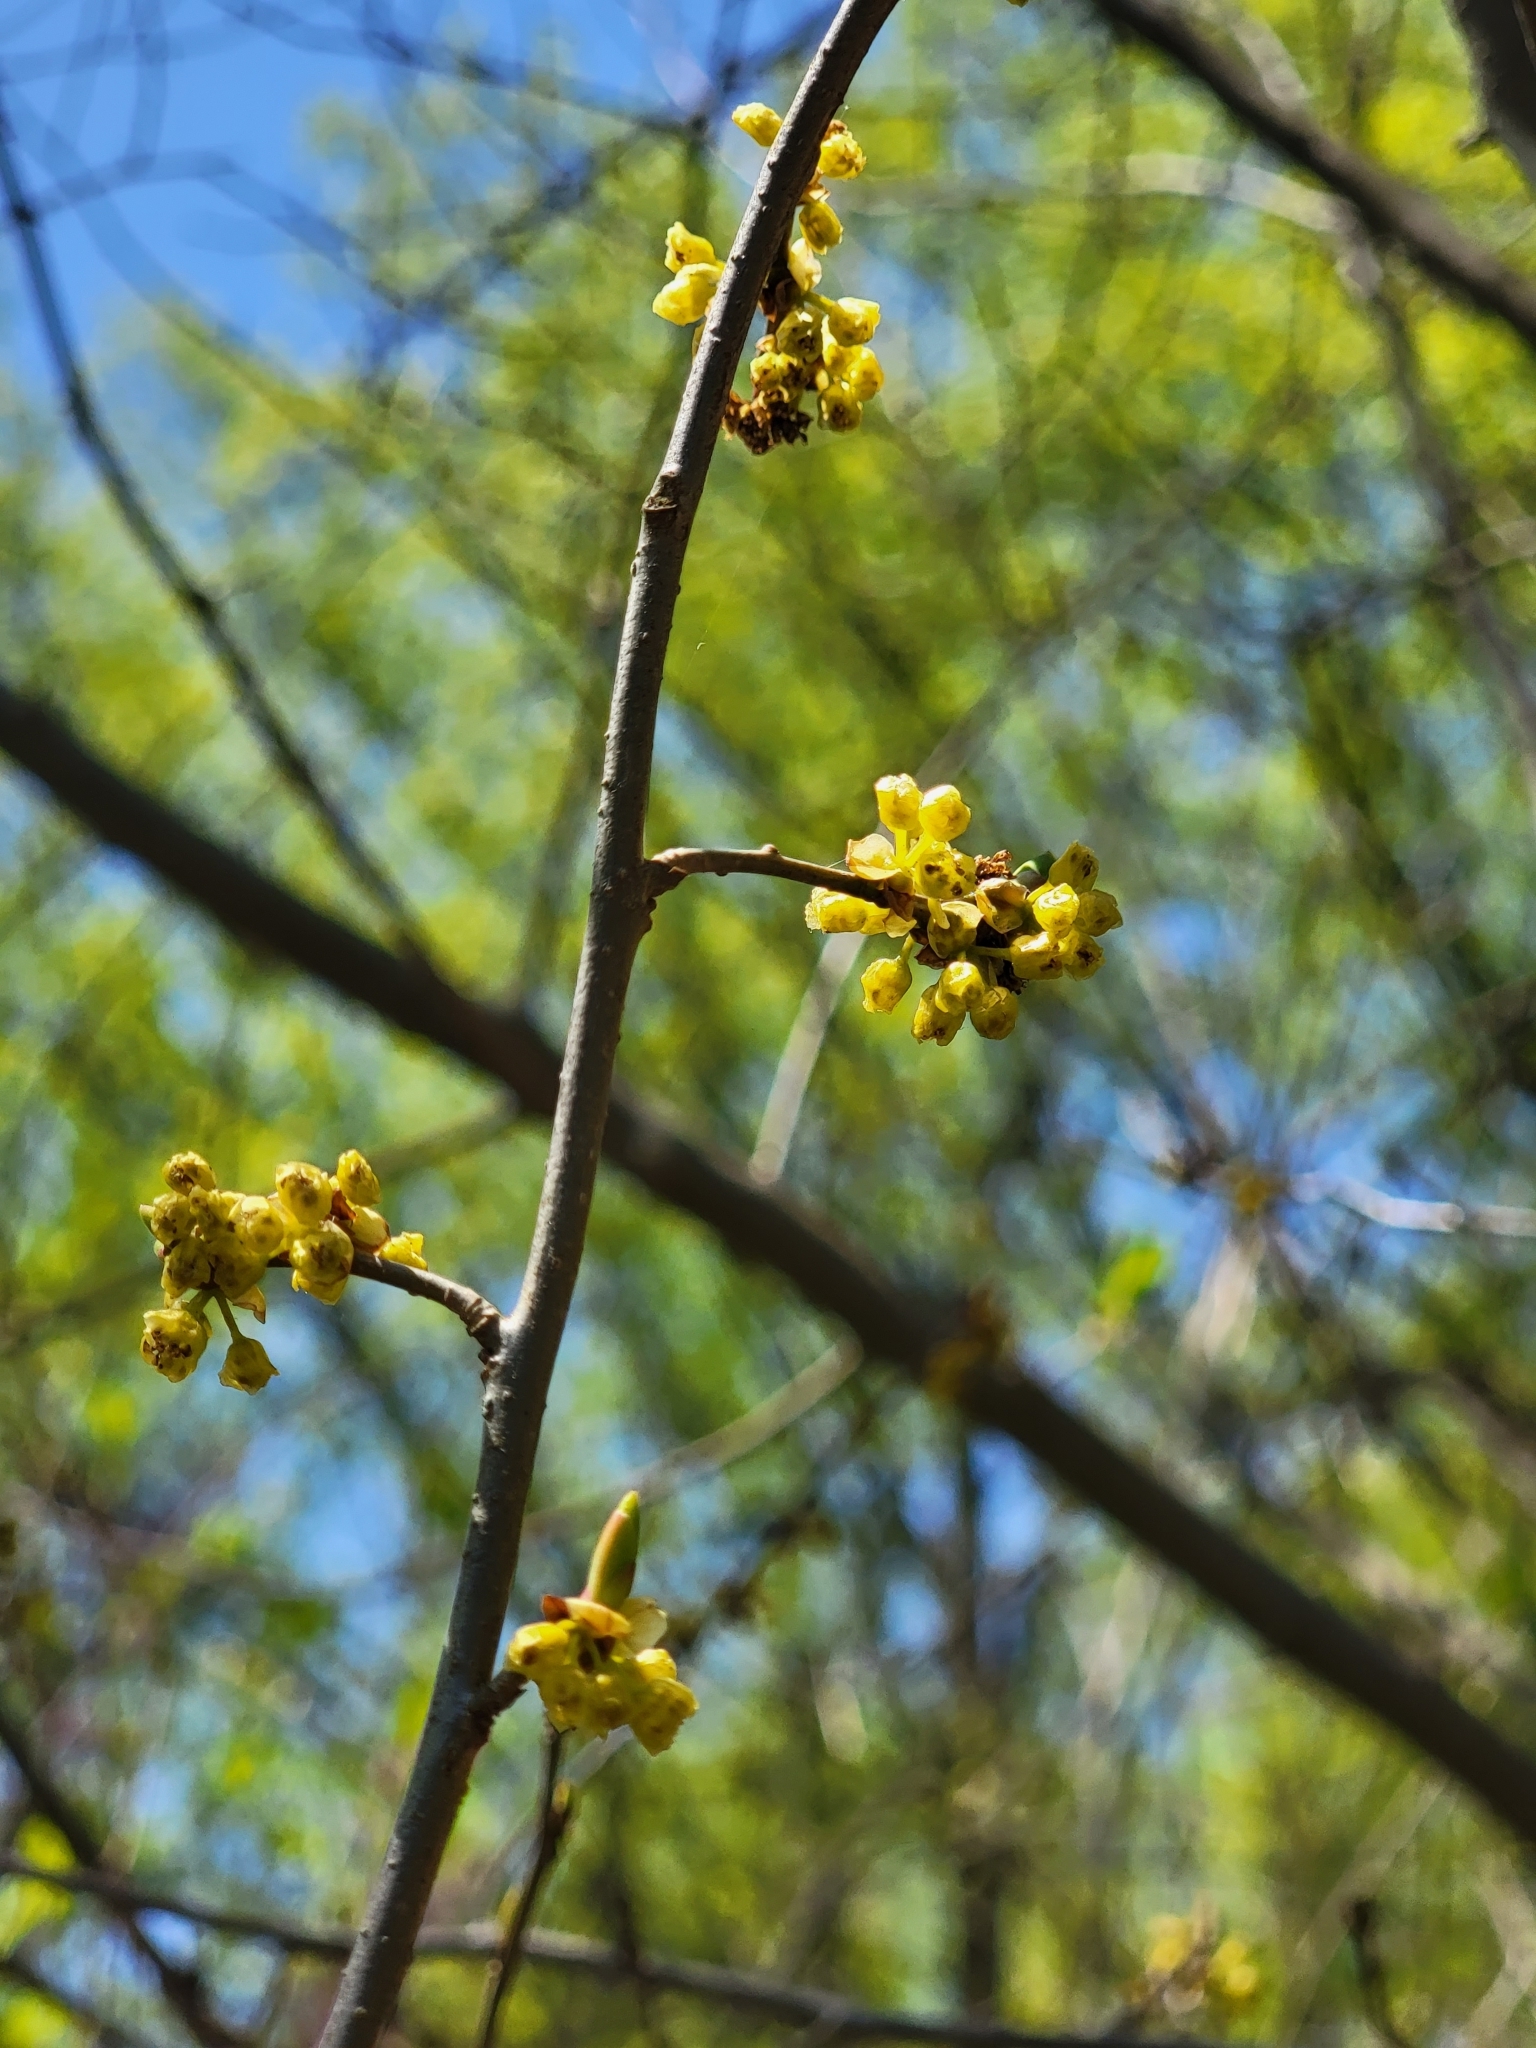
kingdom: Plantae
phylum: Tracheophyta
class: Magnoliopsida
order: Laurales
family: Lauraceae
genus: Lindera
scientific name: Lindera benzoin
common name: Spicebush
